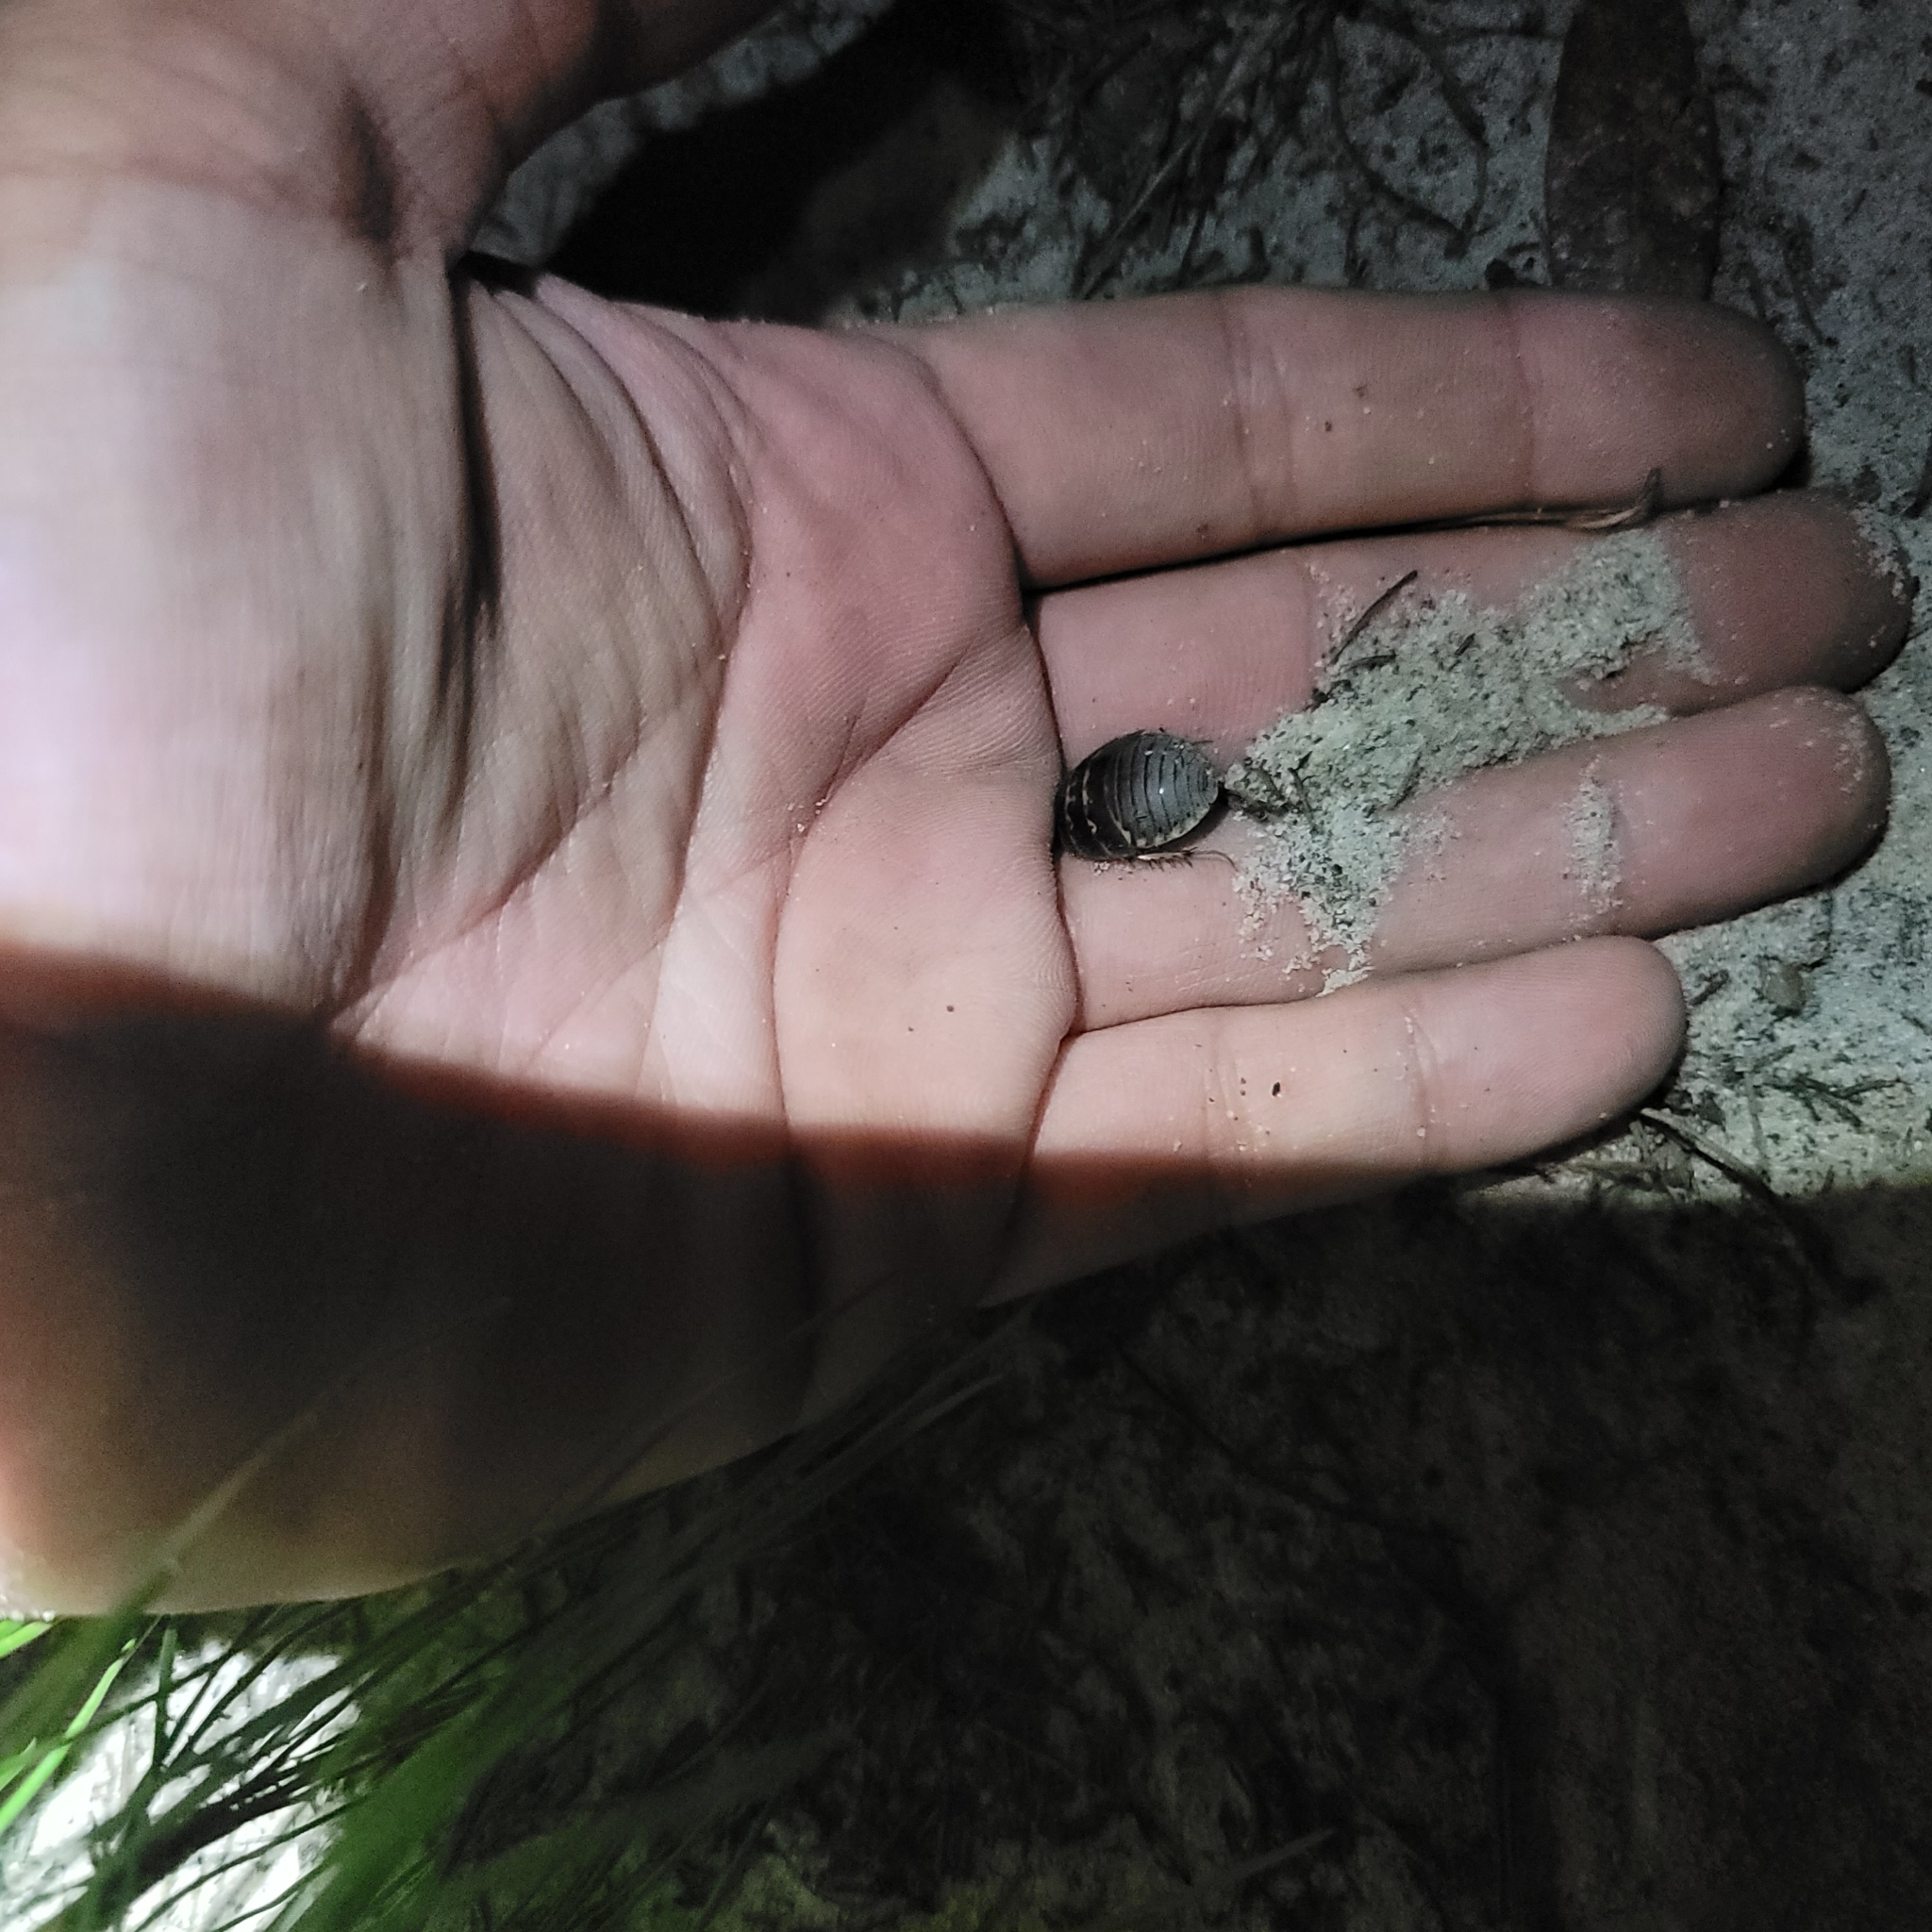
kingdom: Animalia
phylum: Arthropoda
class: Insecta
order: Blattodea
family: Corydiidae
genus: Arenivaga
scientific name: Arenivaga floridensis
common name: Florida sand cockroach
